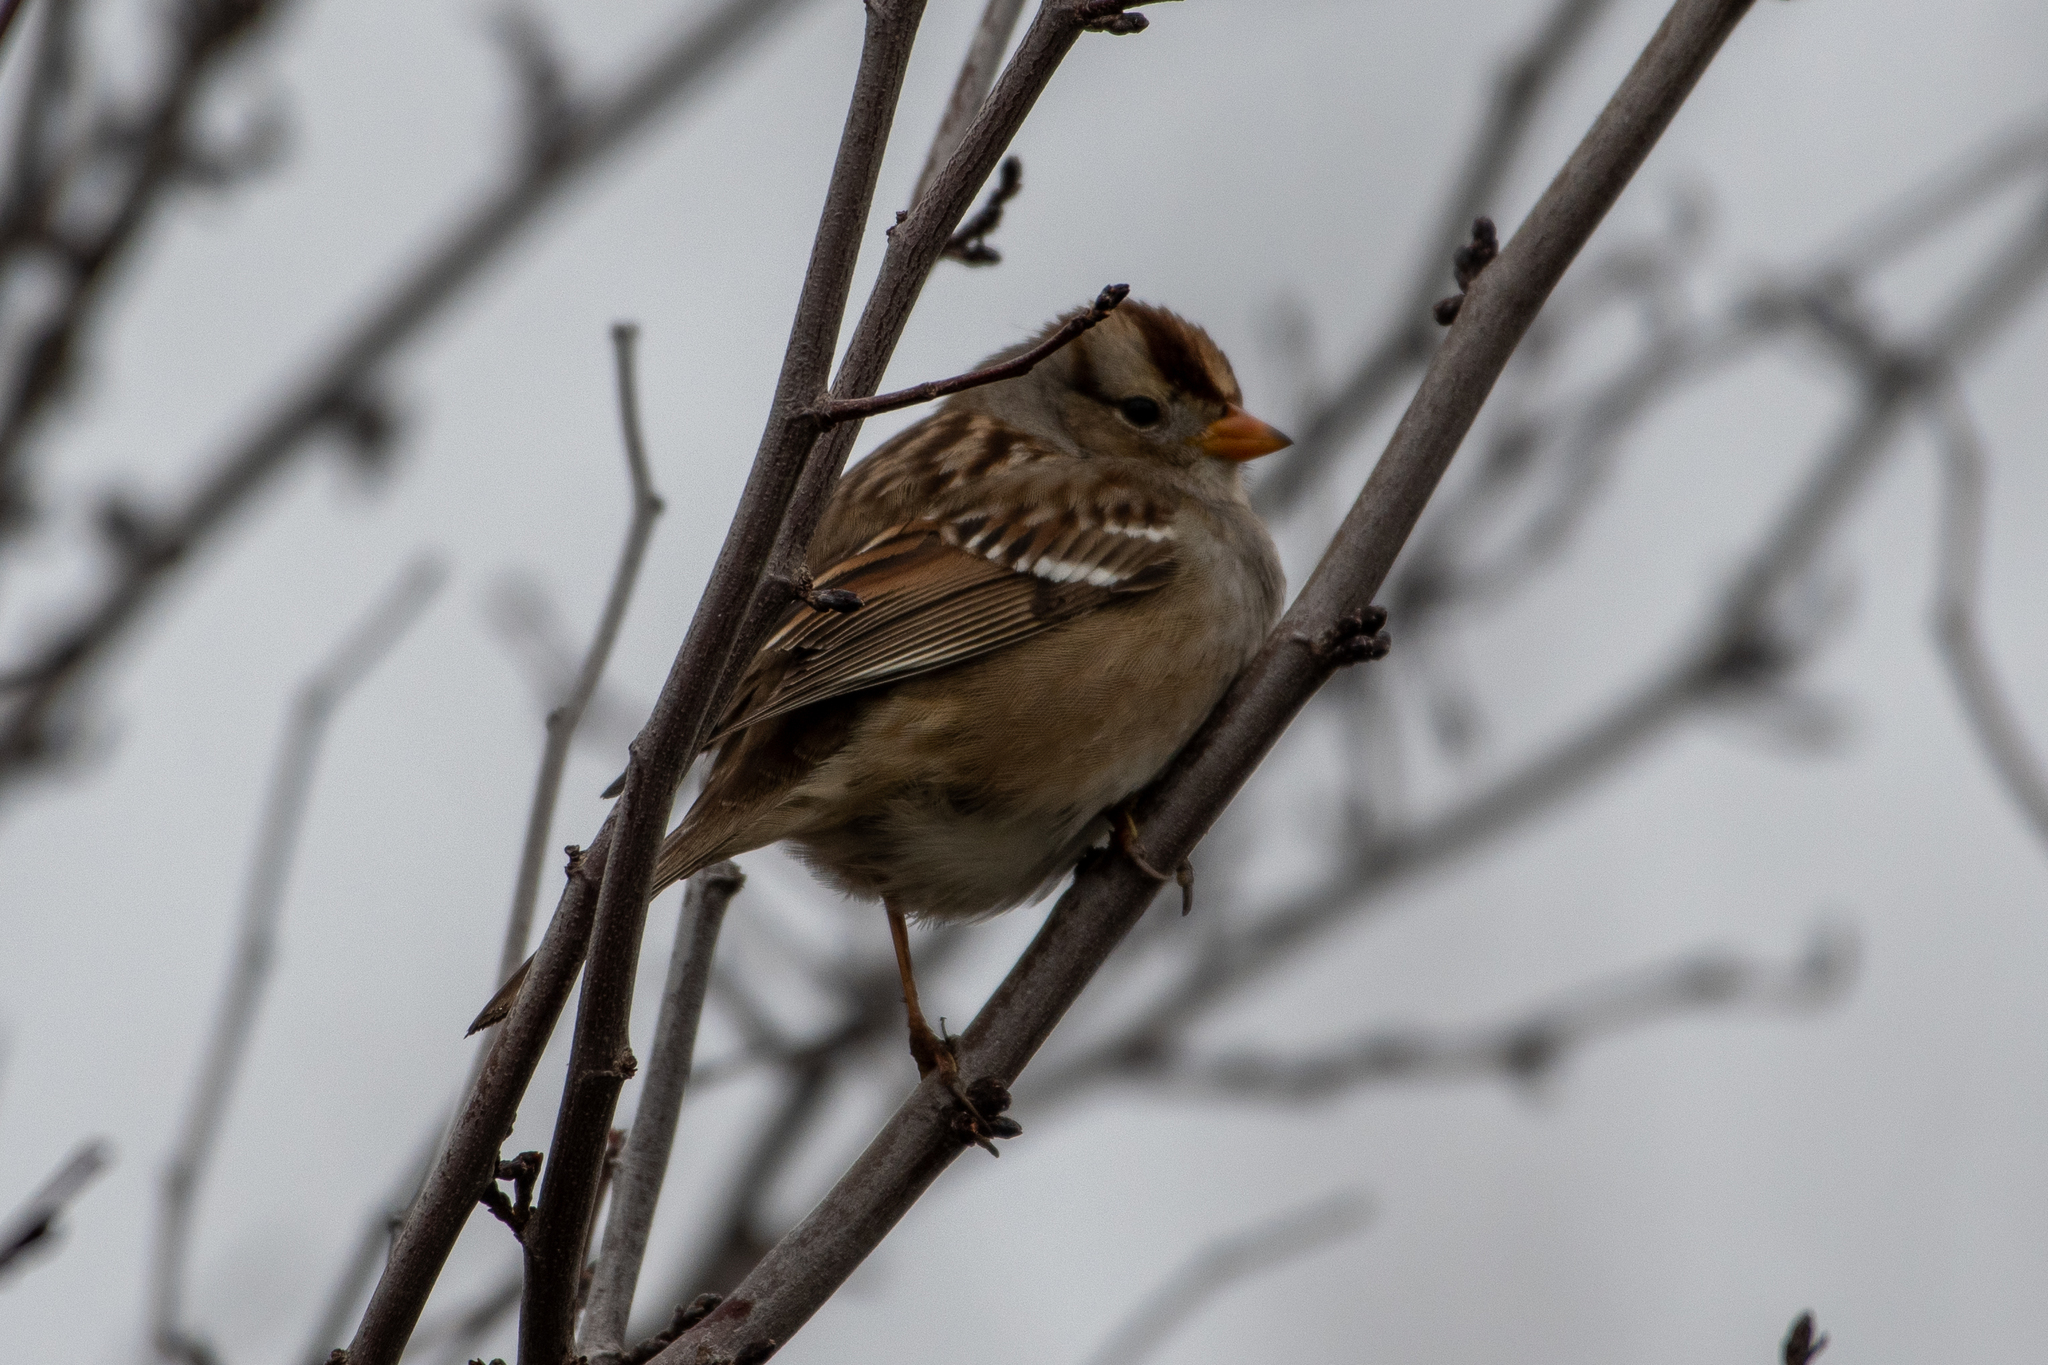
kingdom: Animalia
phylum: Chordata
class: Aves
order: Passeriformes
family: Passerellidae
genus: Zonotrichia
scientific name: Zonotrichia leucophrys
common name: White-crowned sparrow
